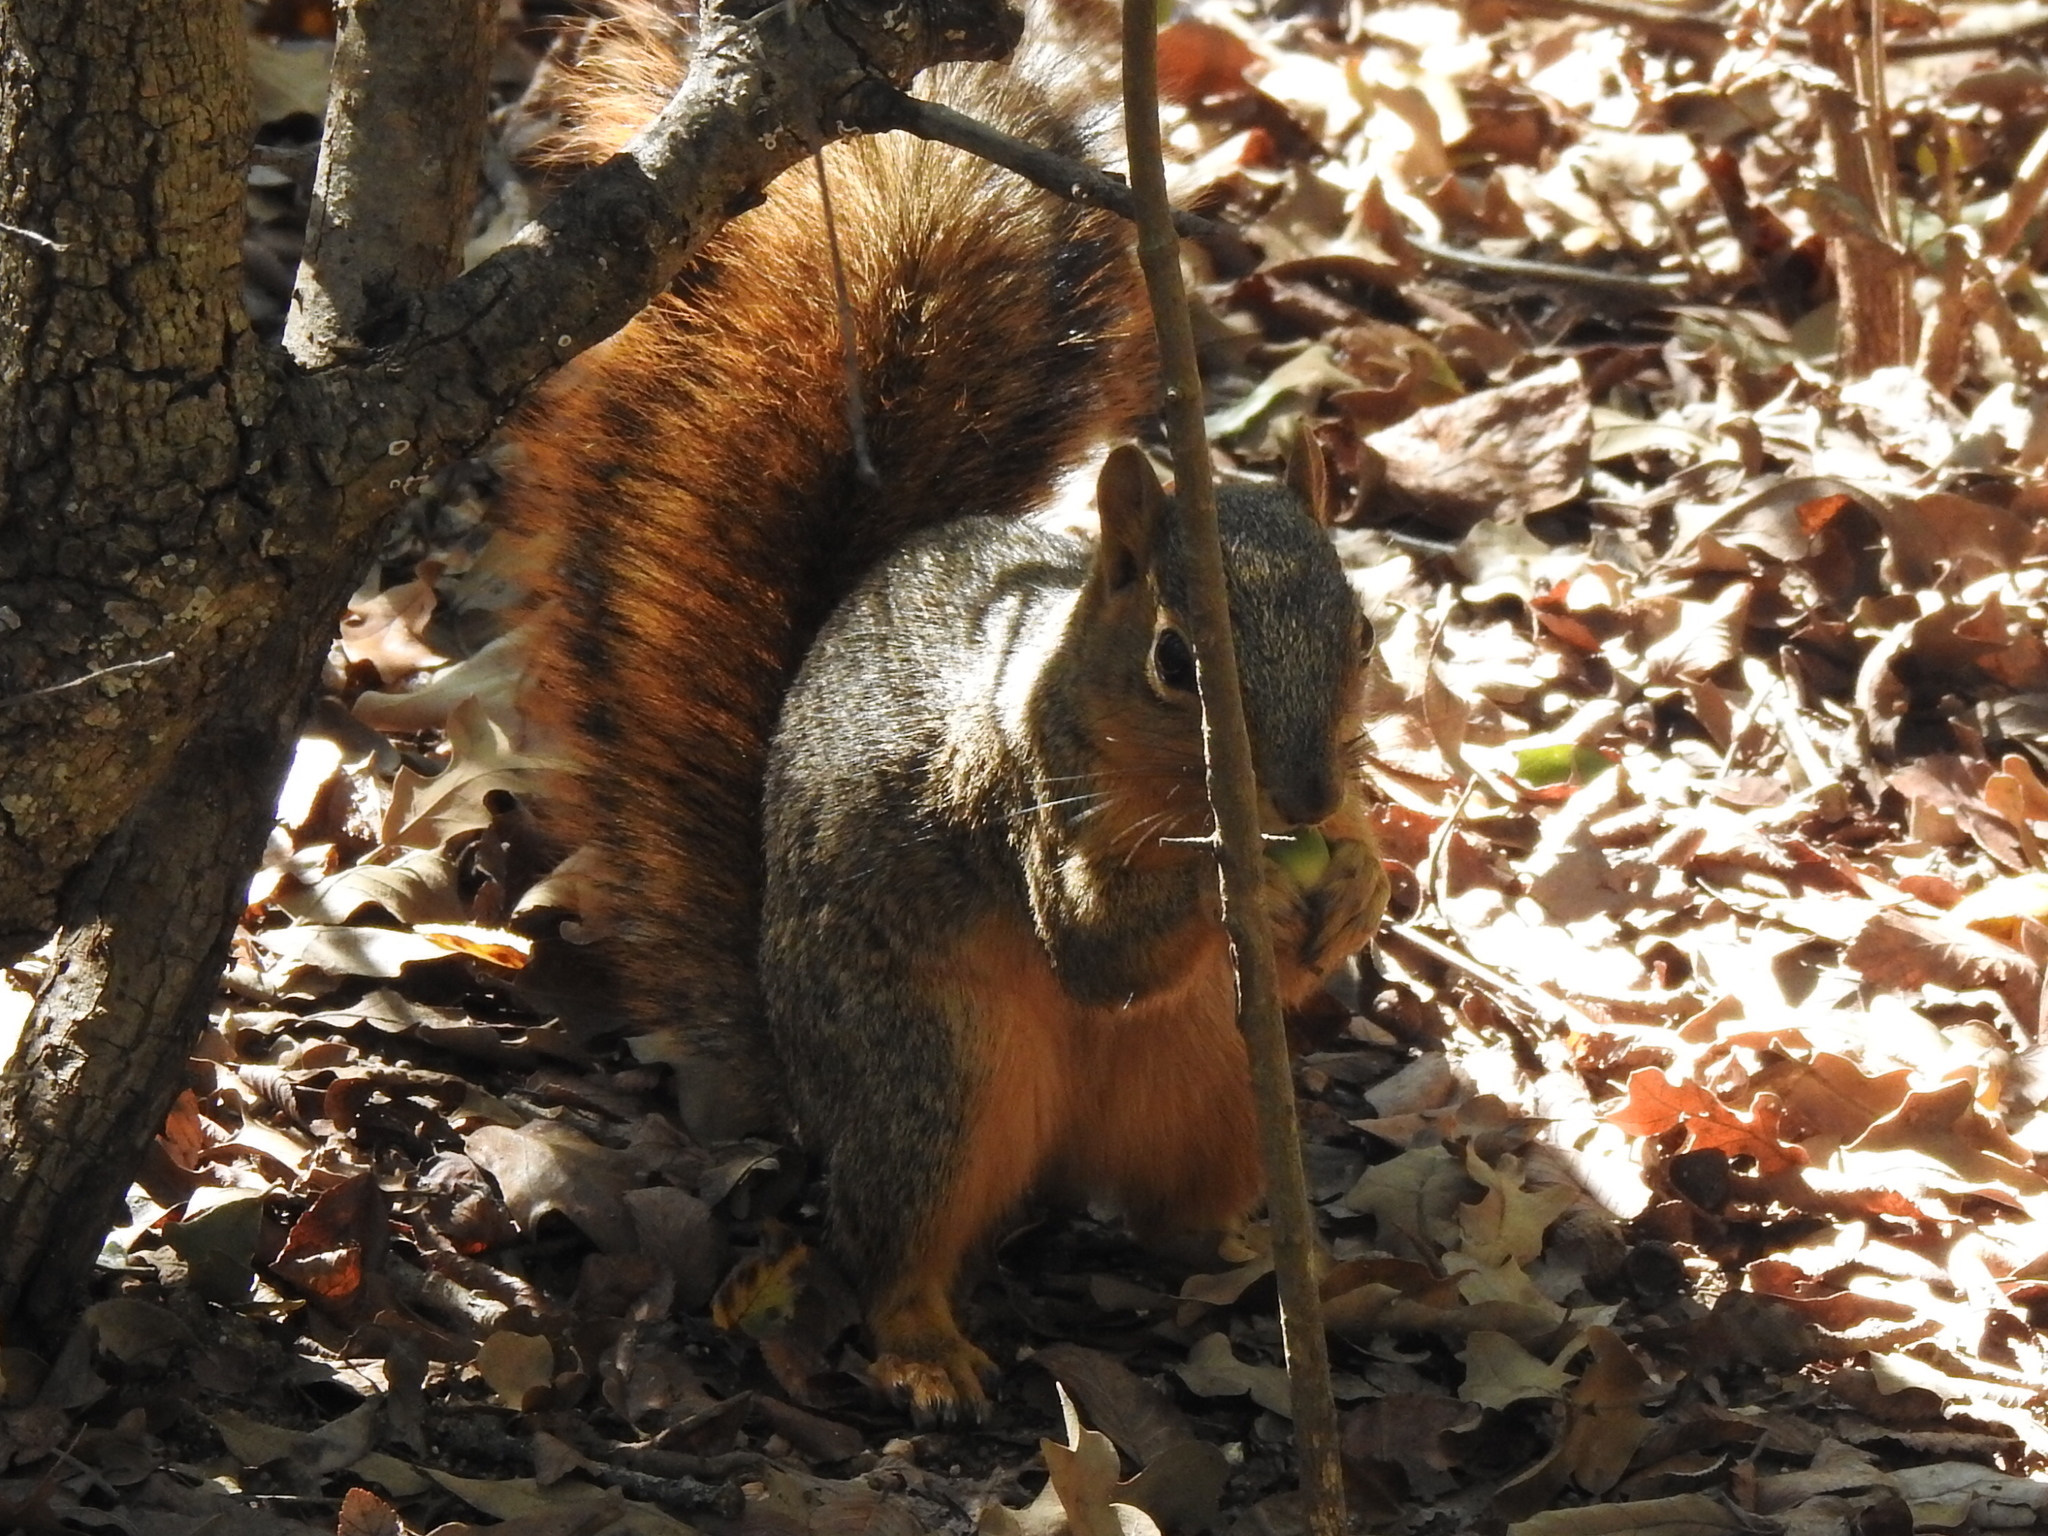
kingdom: Animalia
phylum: Chordata
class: Mammalia
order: Rodentia
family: Sciuridae
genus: Sciurus
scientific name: Sciurus niger
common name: Fox squirrel
